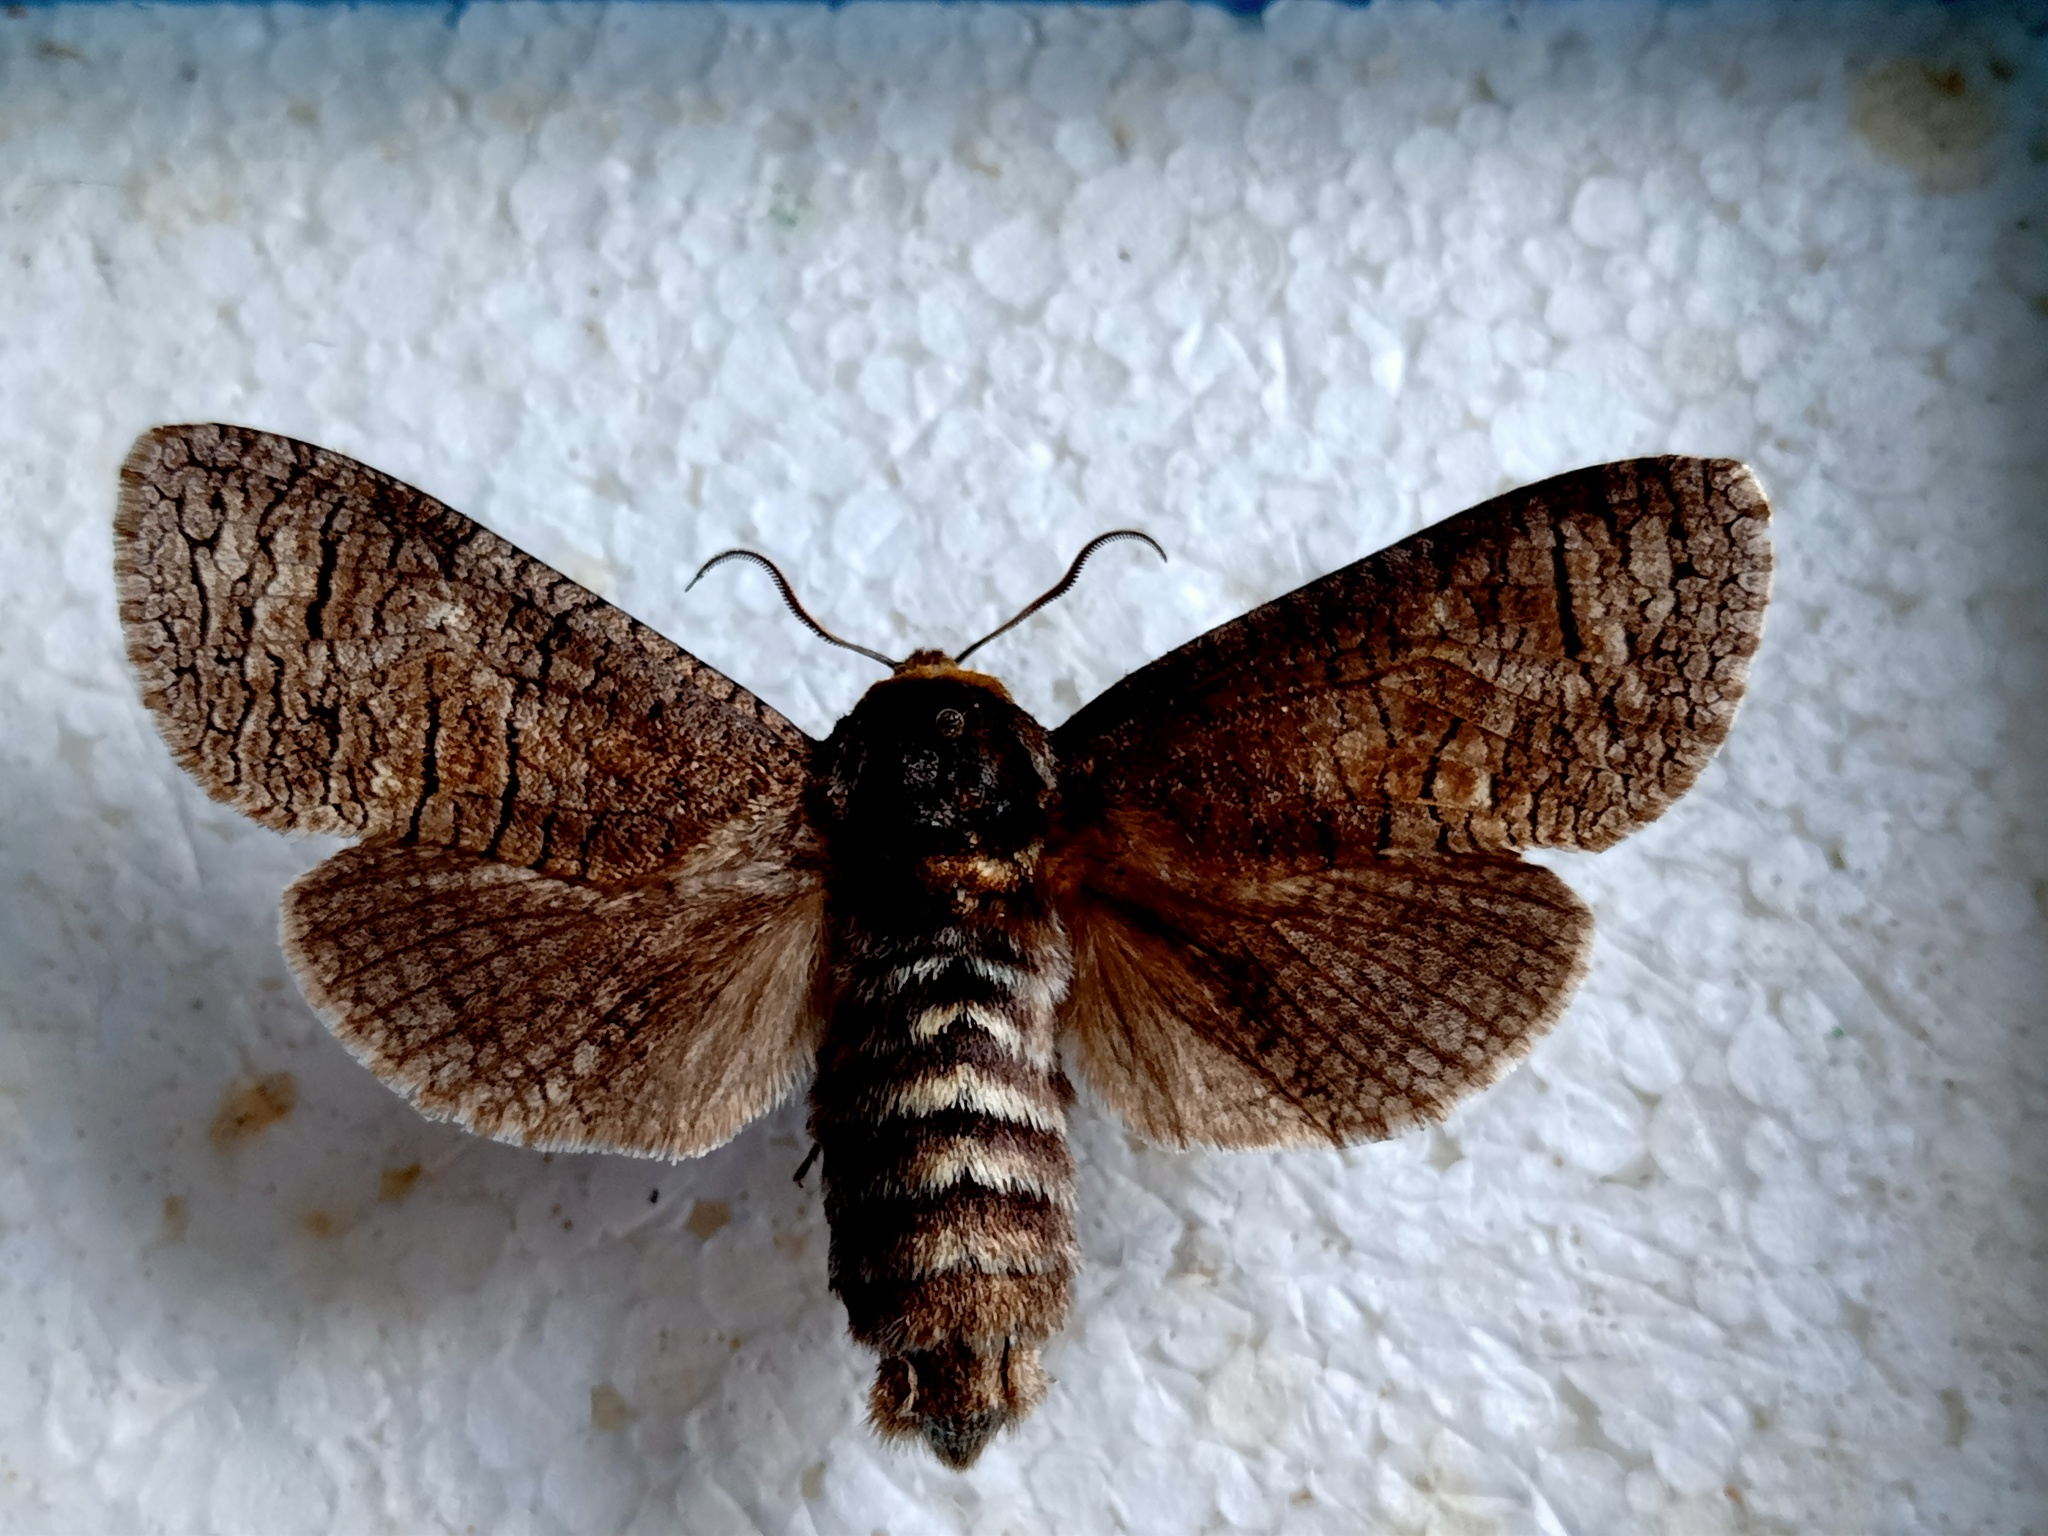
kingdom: Animalia
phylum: Arthropoda
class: Insecta
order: Lepidoptera
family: Cossidae
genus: Cossus
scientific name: Cossus cossus
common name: Goat moth
